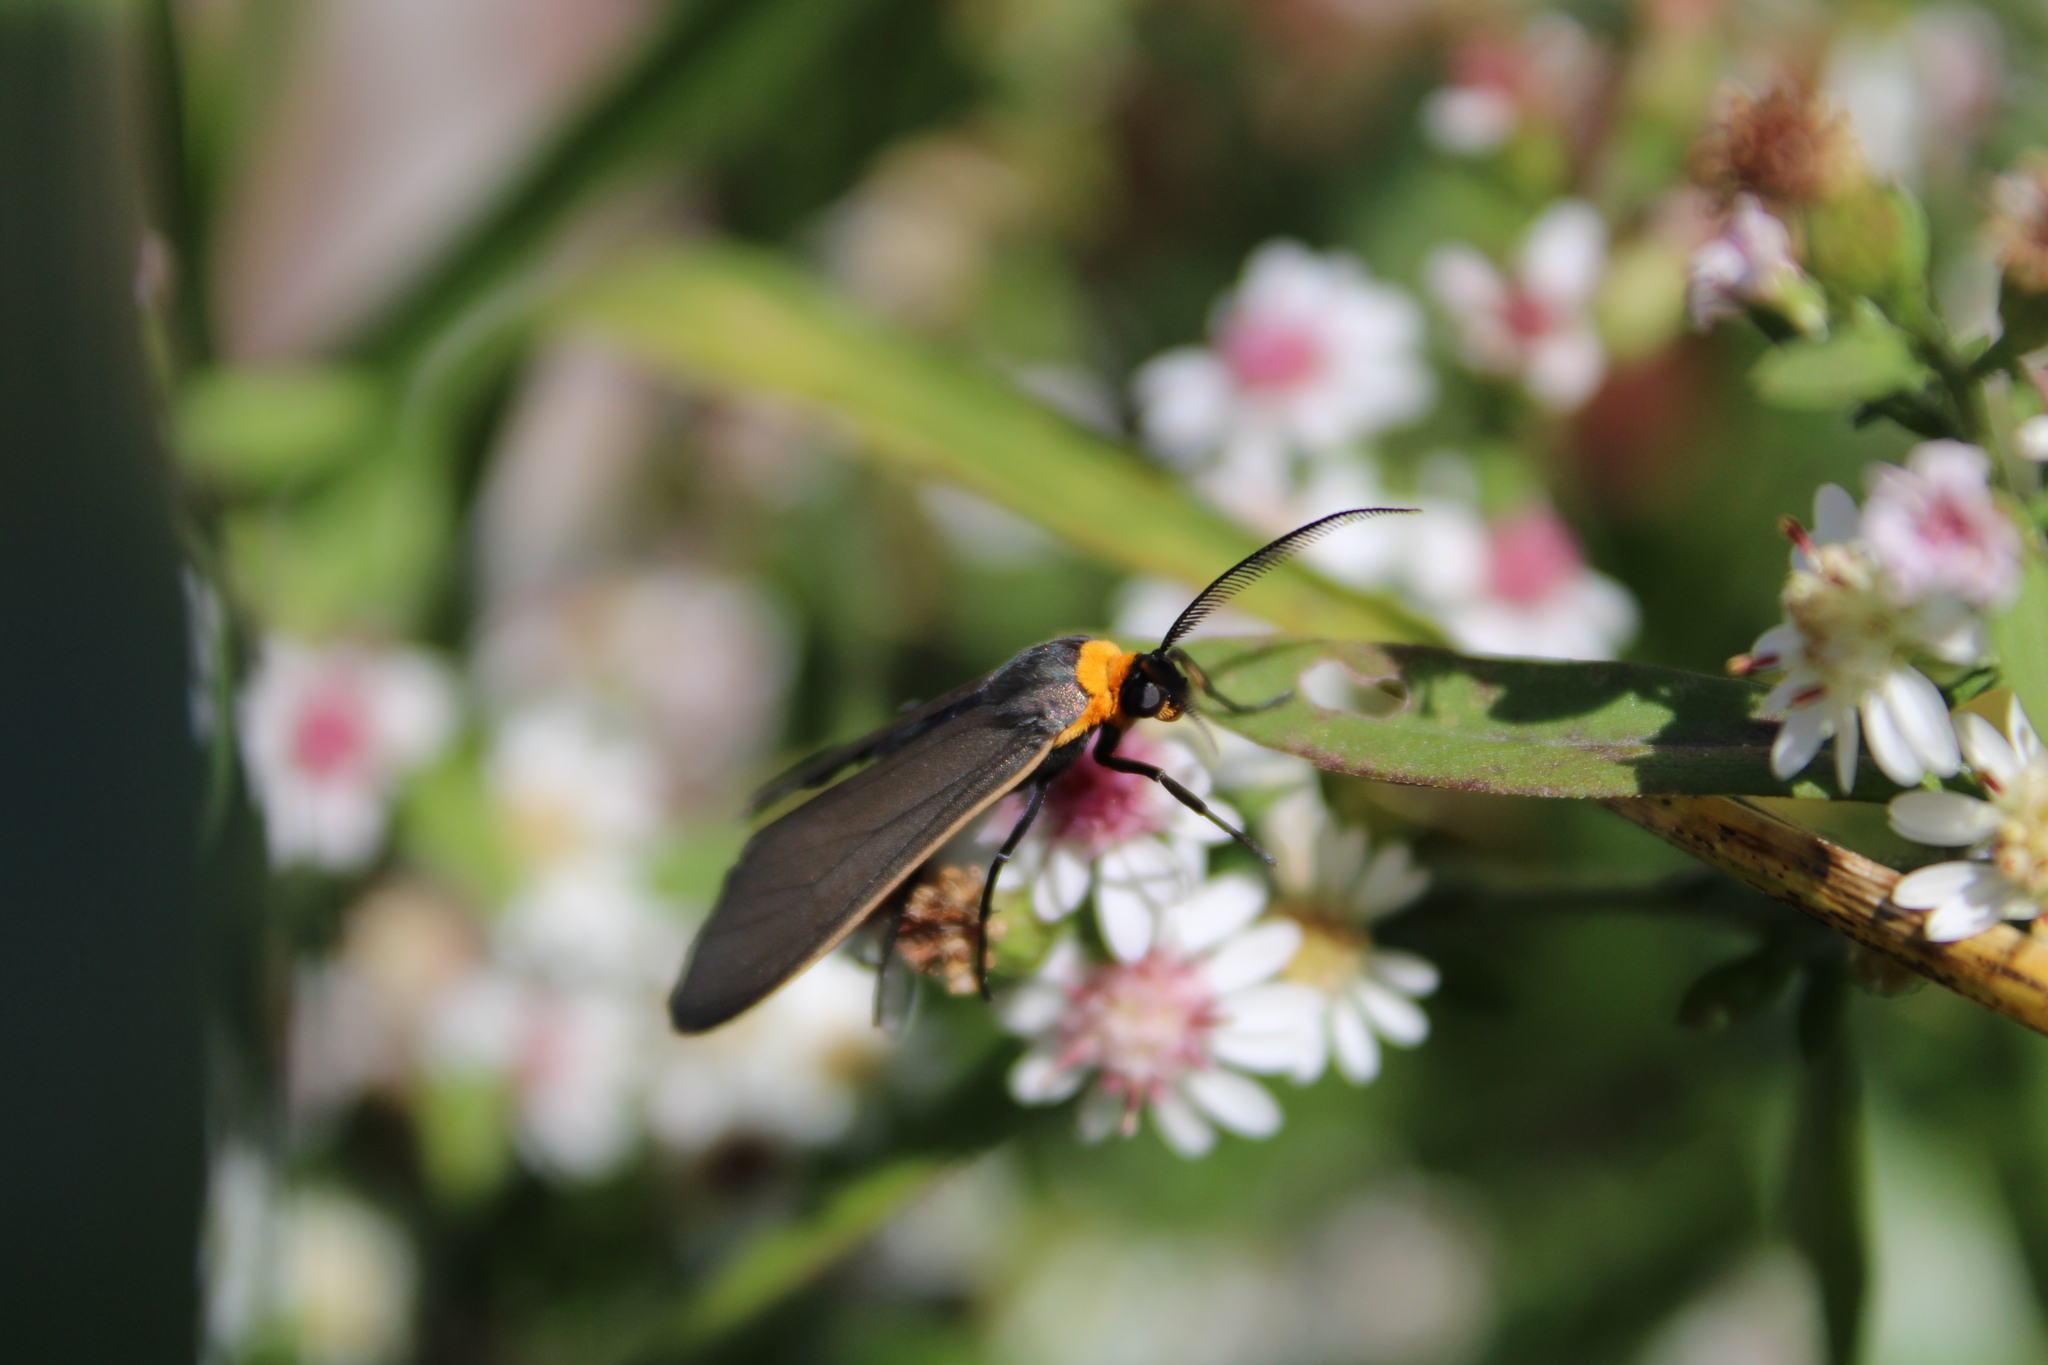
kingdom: Animalia
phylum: Arthropoda
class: Insecta
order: Lepidoptera
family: Erebidae
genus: Cisseps
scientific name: Cisseps fulvicollis
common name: Yellow-collared scape moth
